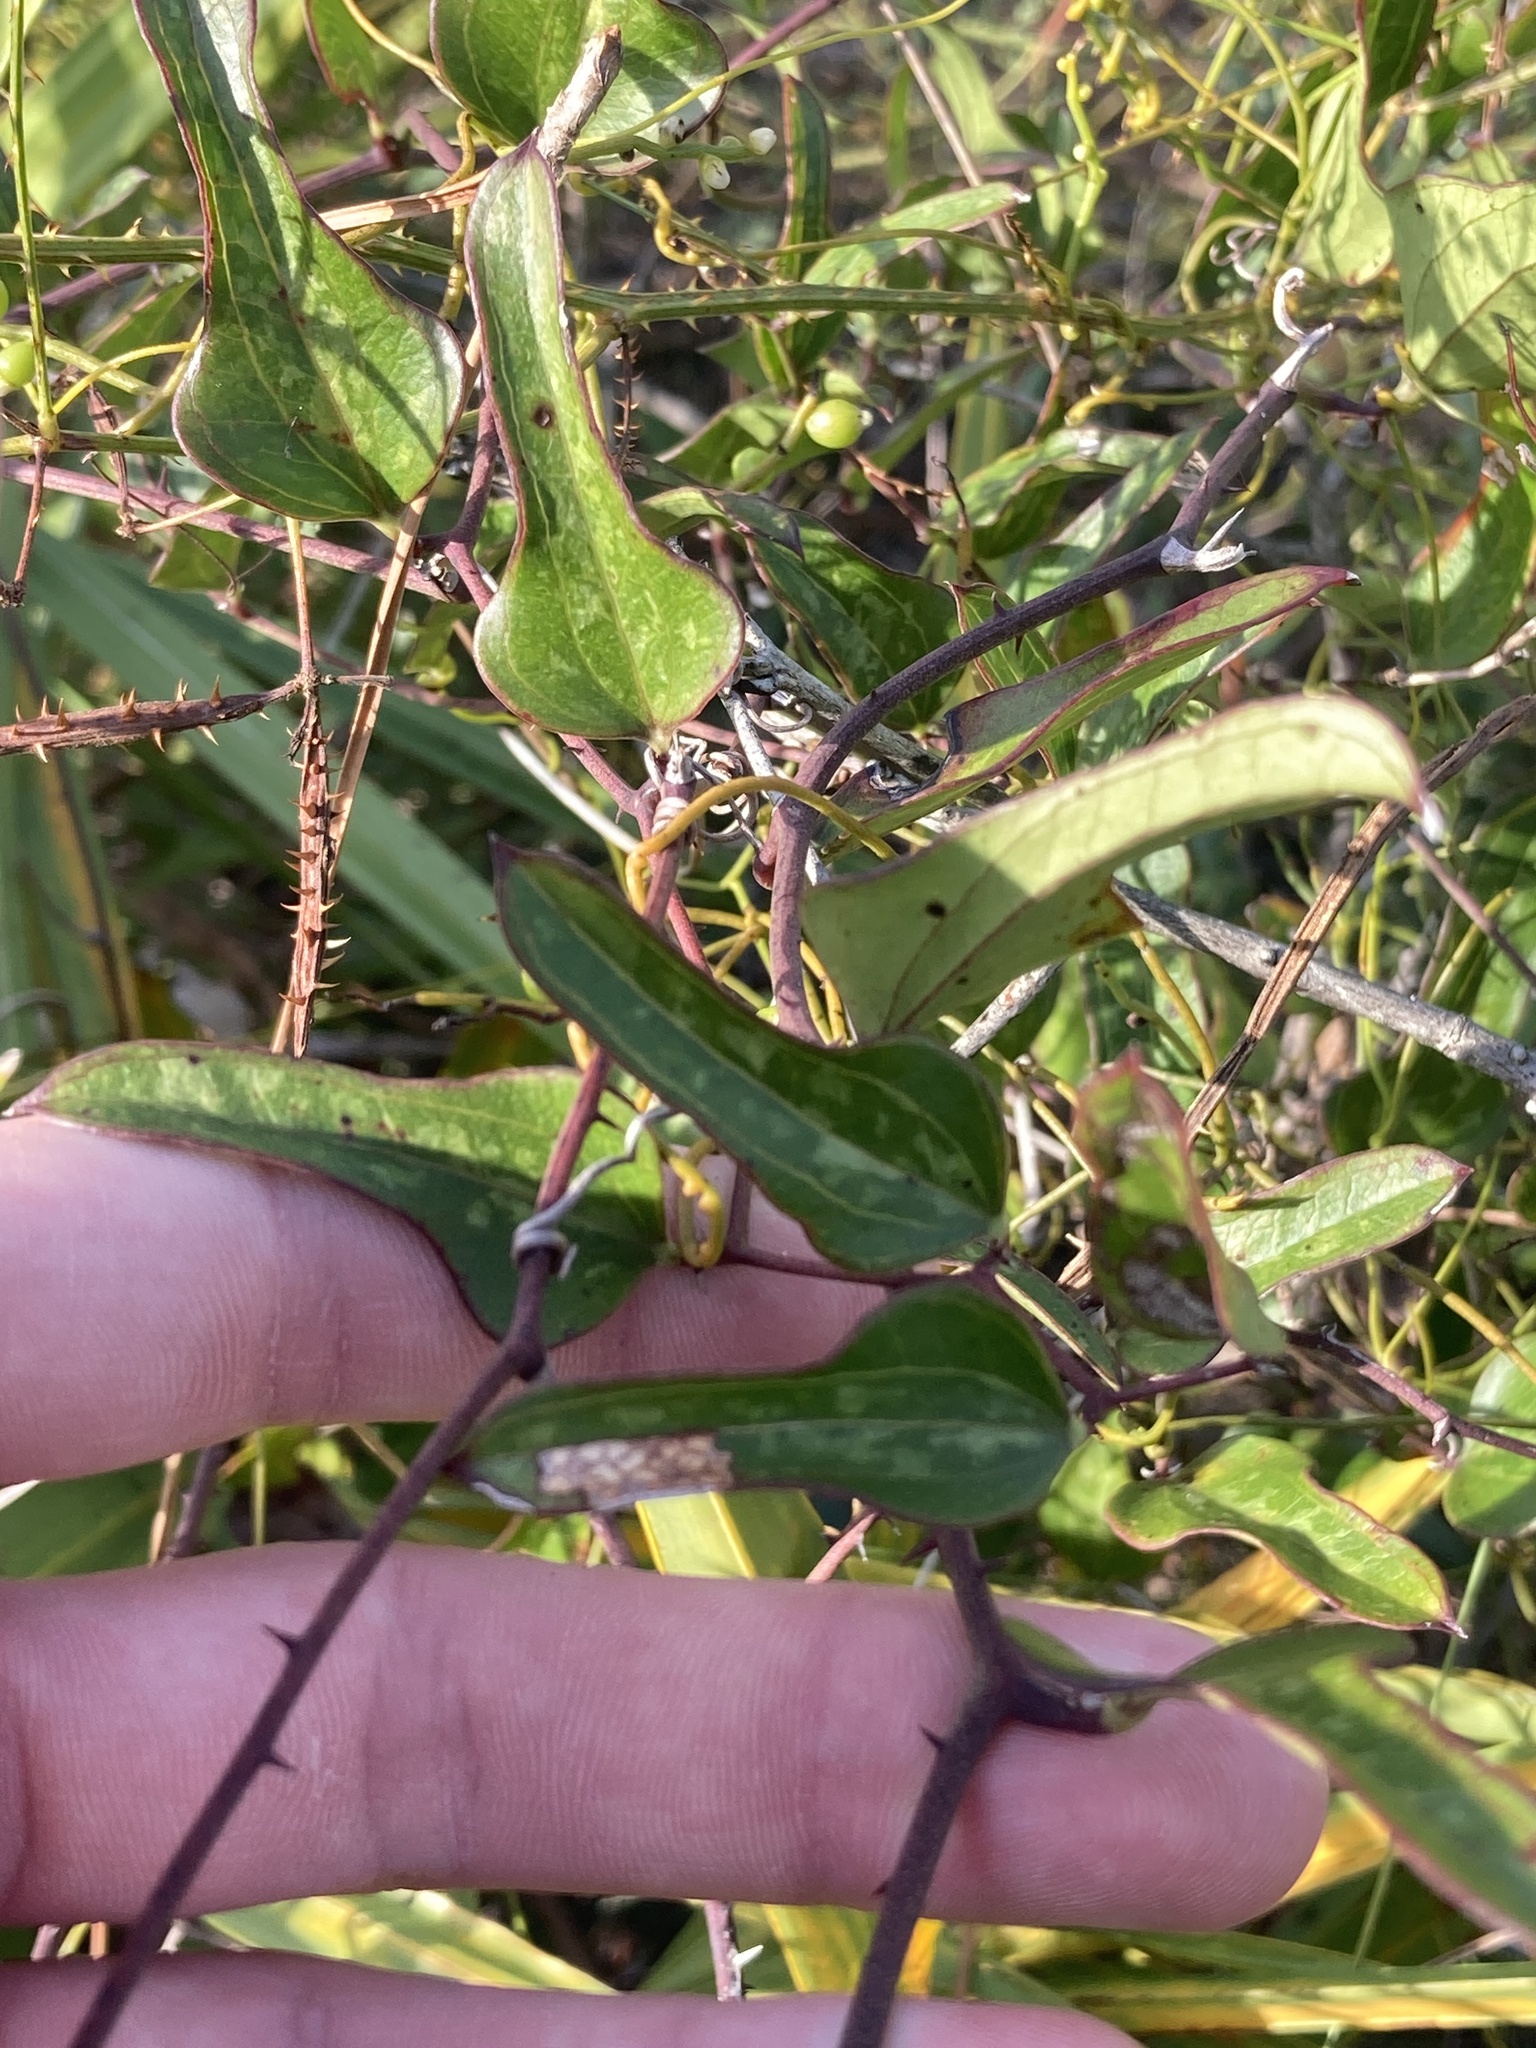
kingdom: Plantae
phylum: Tracheophyta
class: Liliopsida
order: Liliales
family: Smilacaceae
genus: Smilax
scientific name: Smilax auriculata
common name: Wild bamboo
